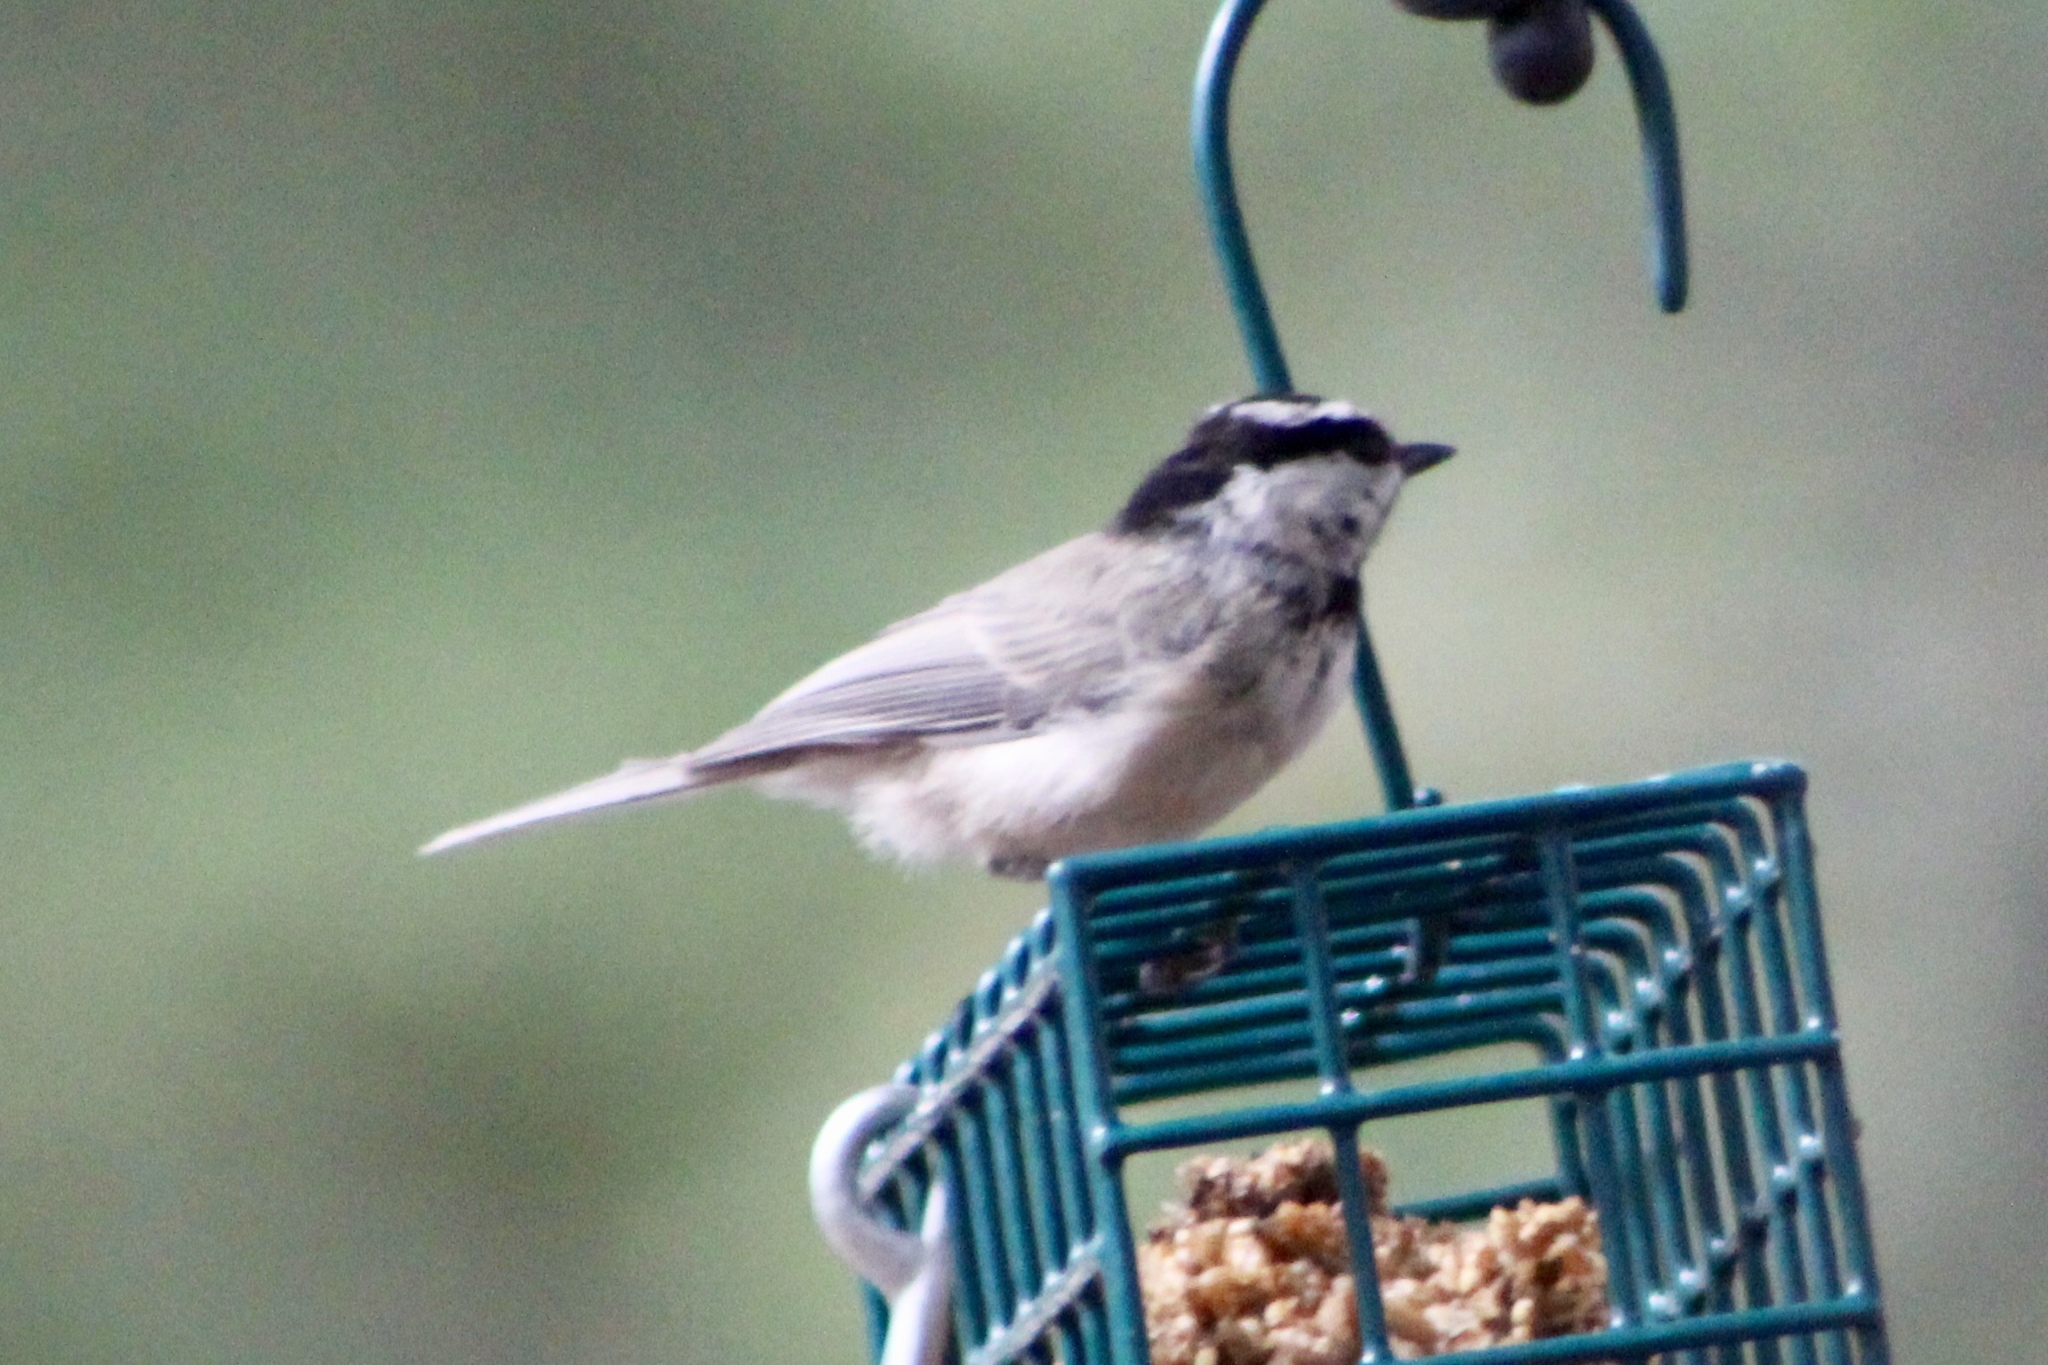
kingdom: Animalia
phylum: Chordata
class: Aves
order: Passeriformes
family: Paridae
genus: Poecile
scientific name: Poecile gambeli
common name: Mountain chickadee
